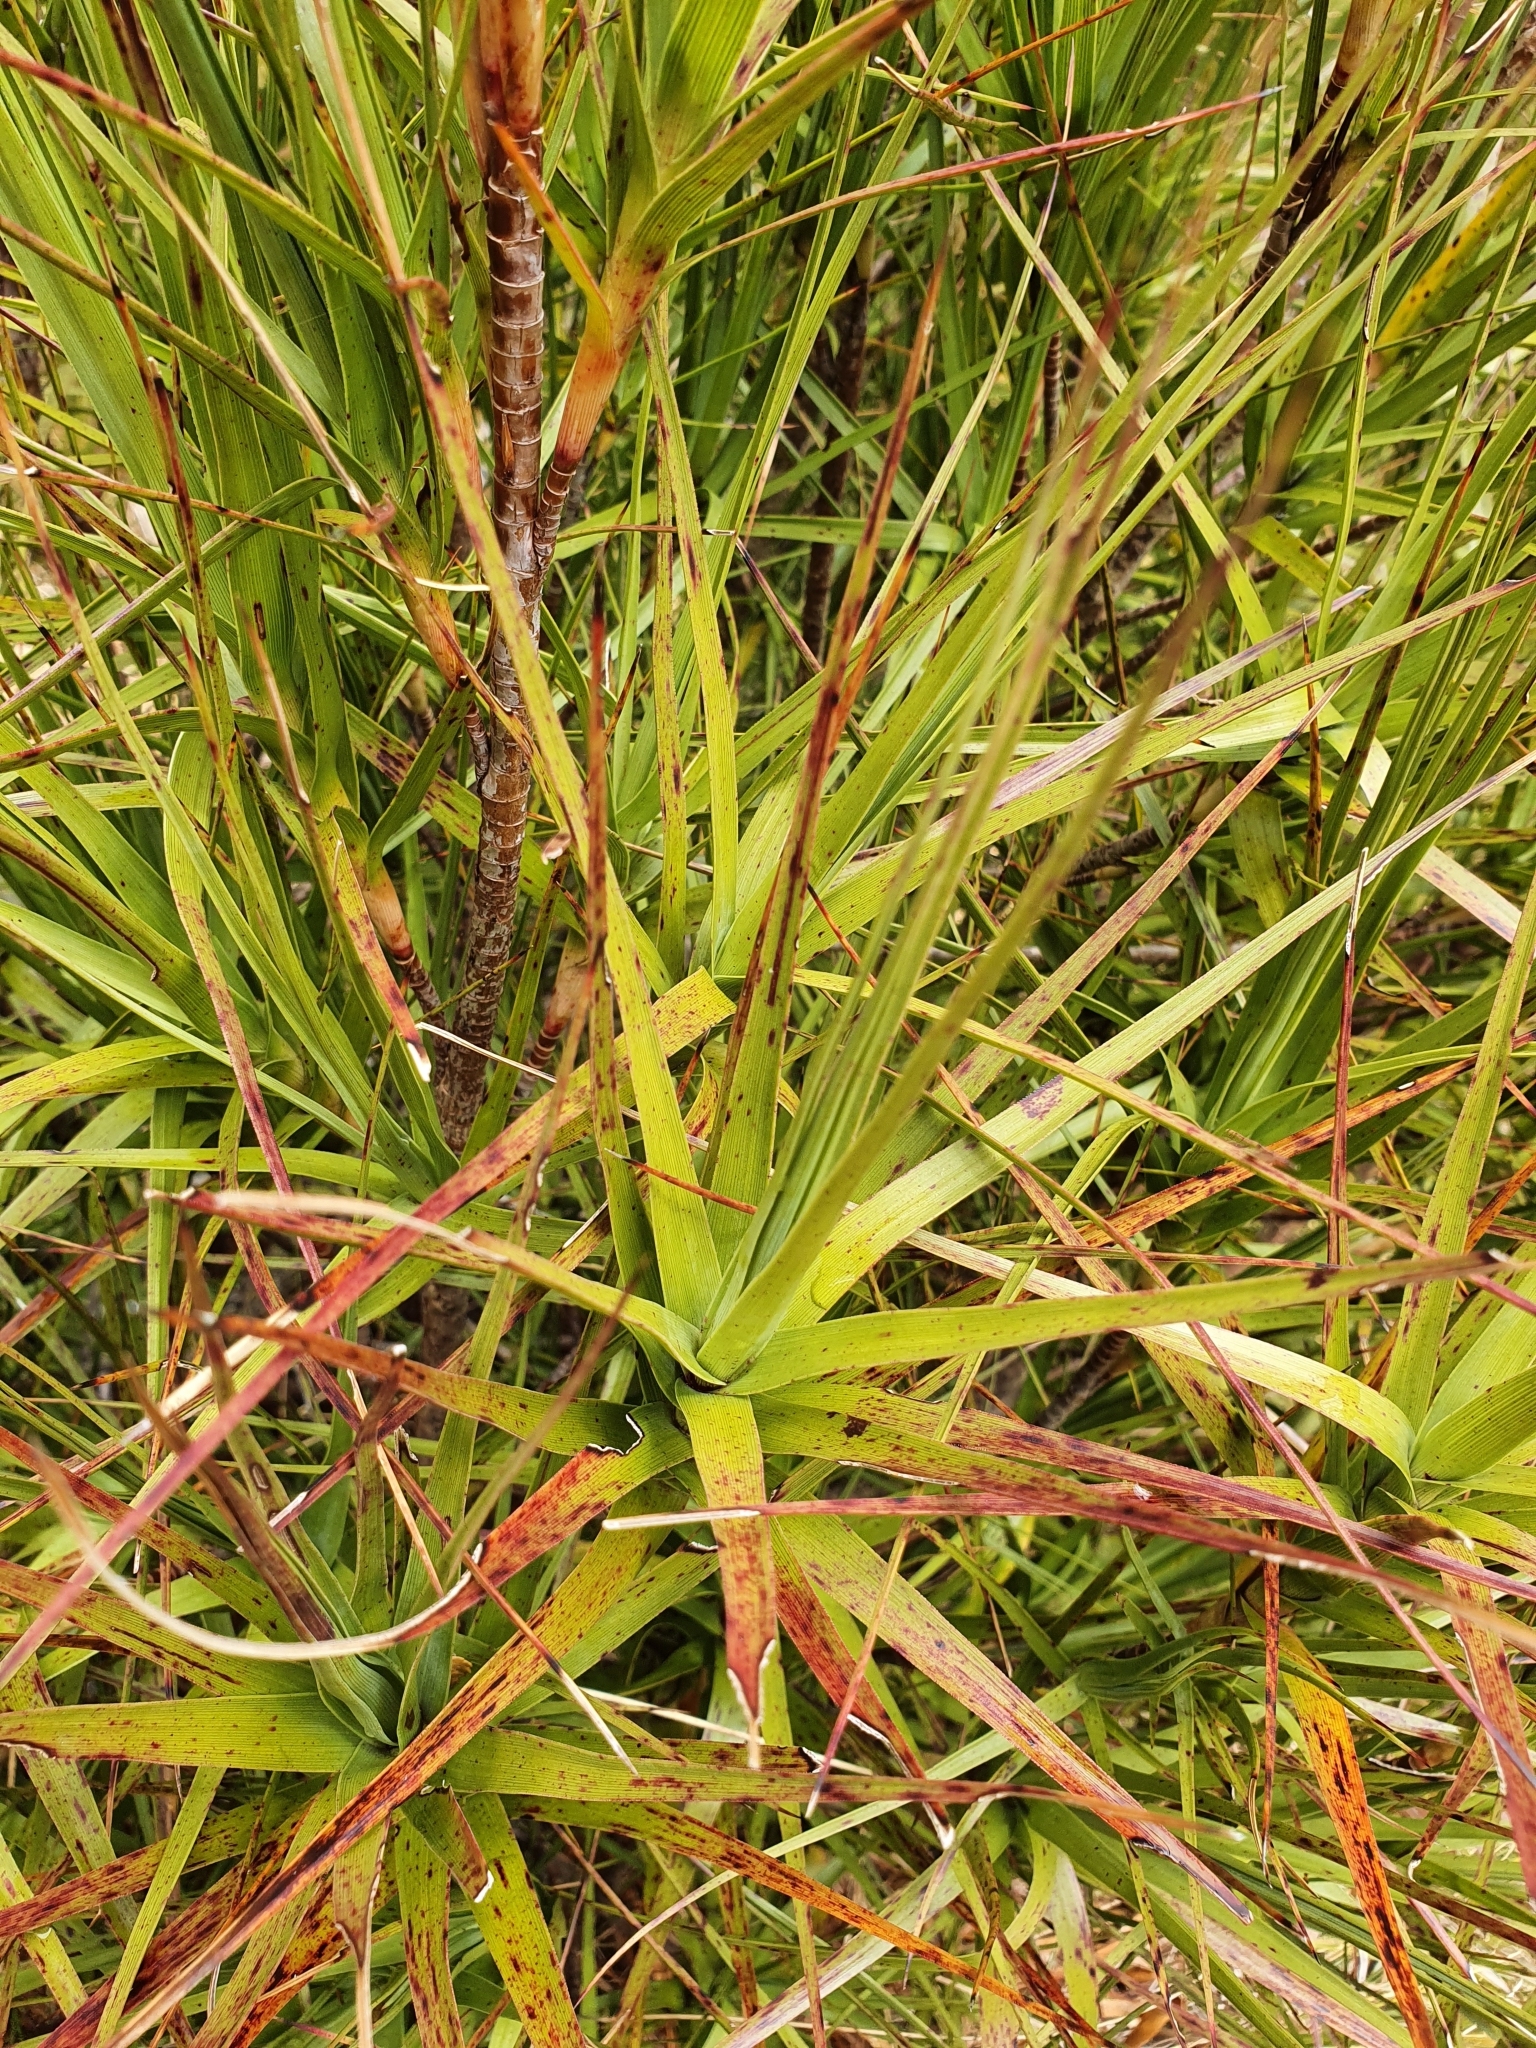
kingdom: Plantae
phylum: Tracheophyta
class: Magnoliopsida
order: Ericales
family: Ericaceae
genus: Dracophyllum
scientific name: Dracophyllum longifolium
